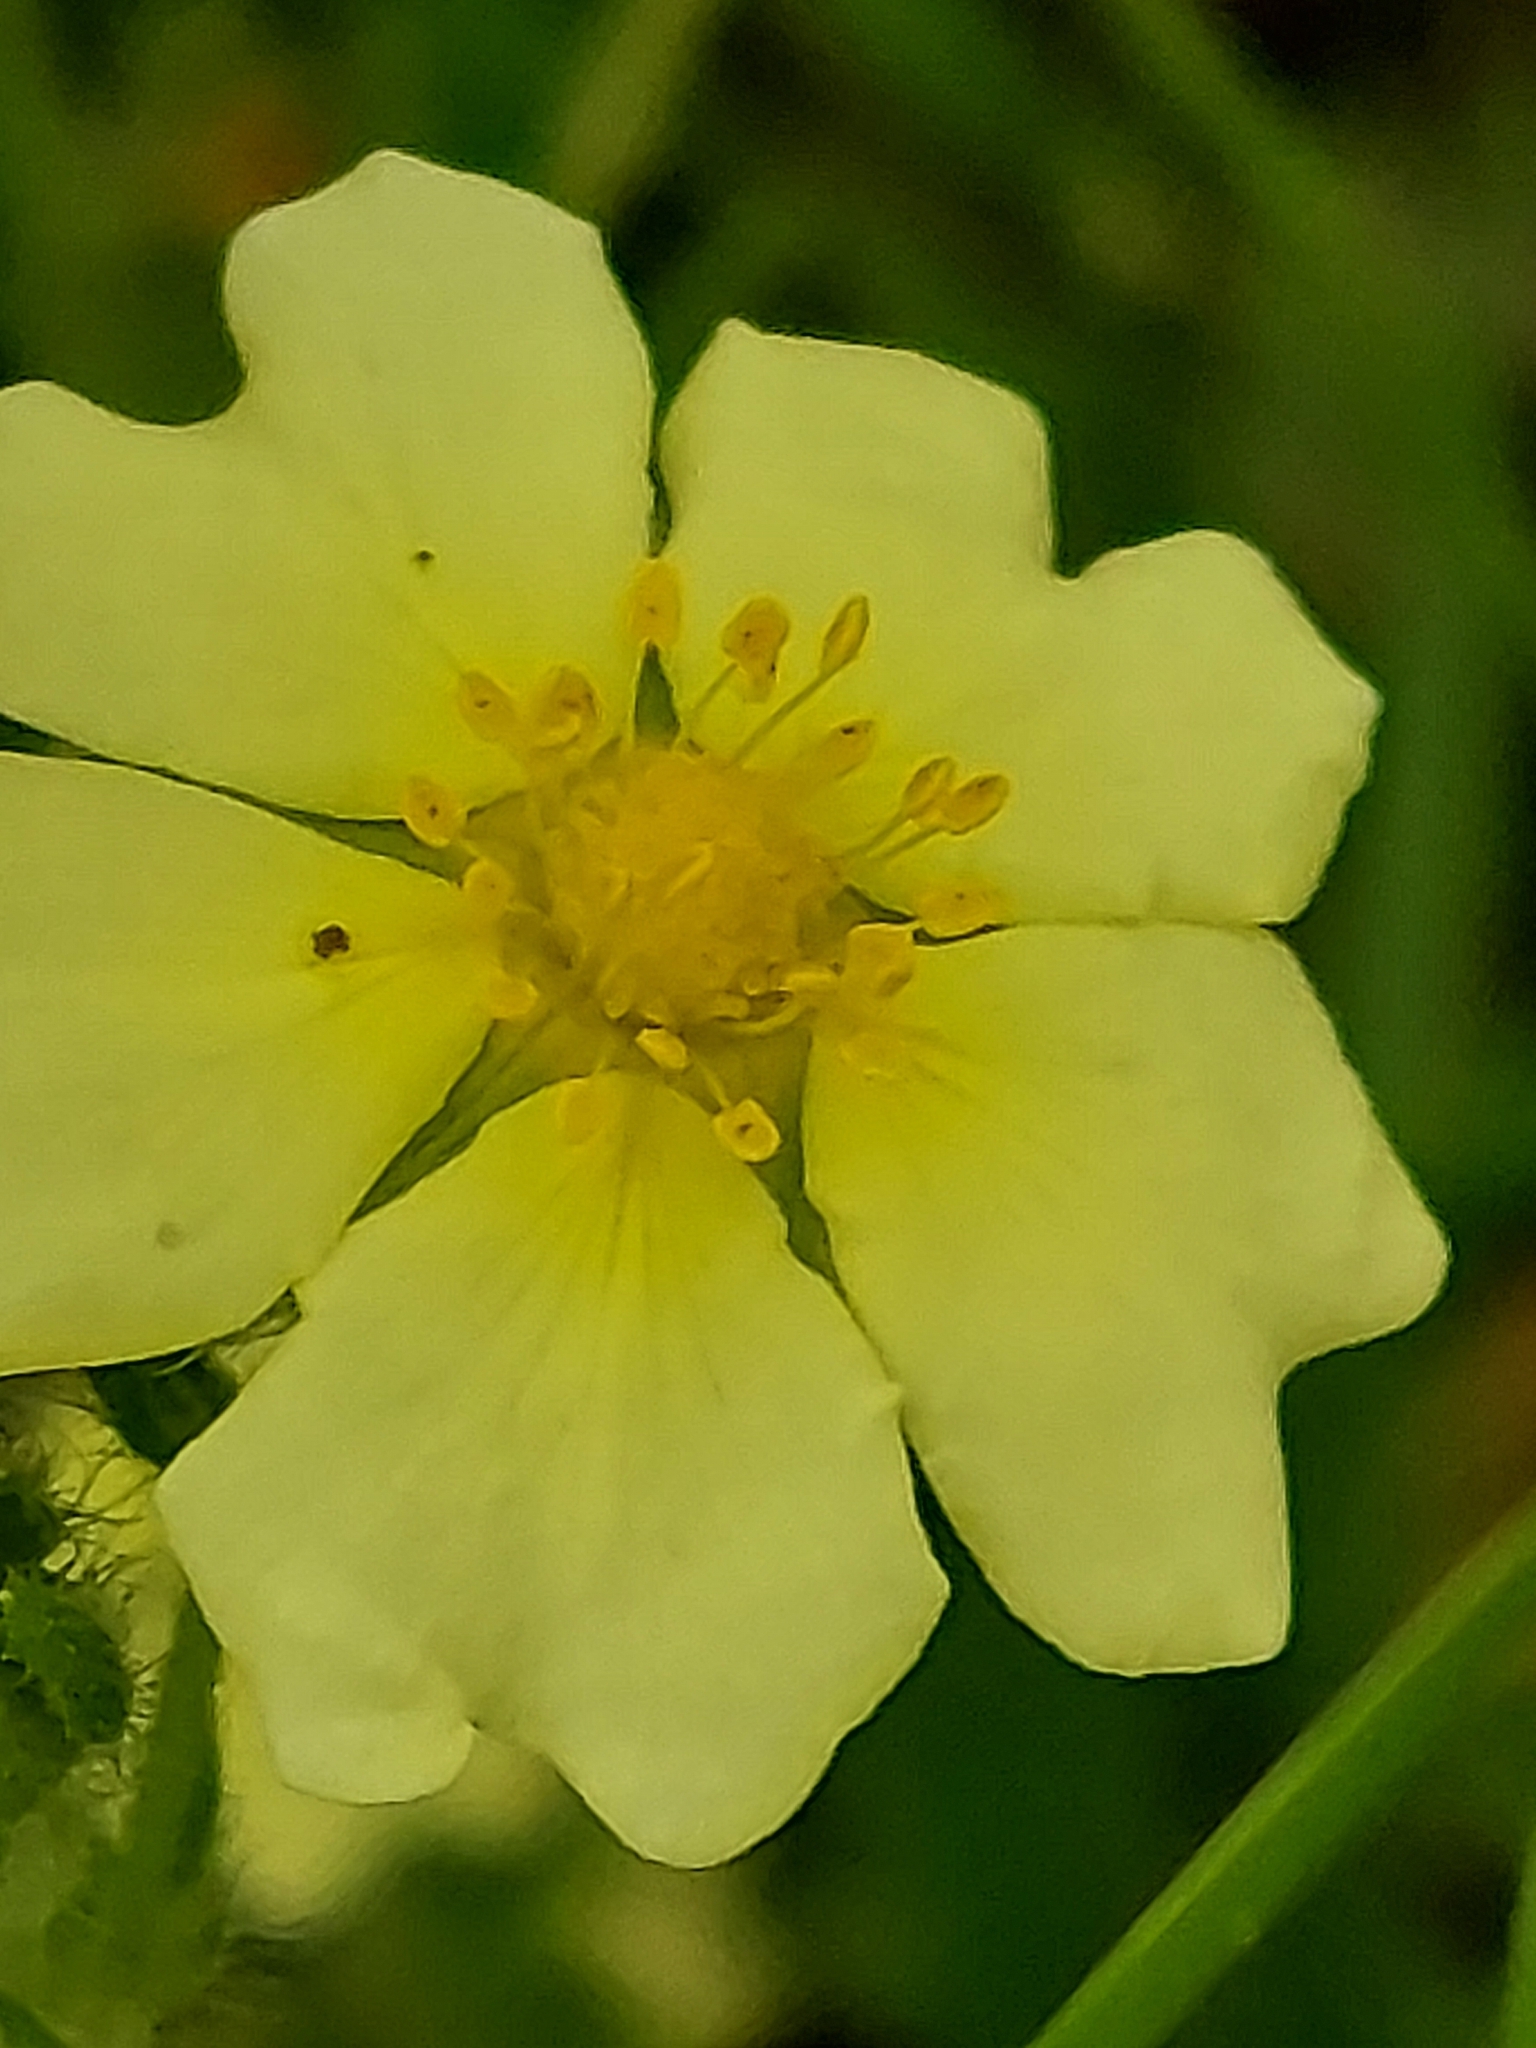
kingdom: Plantae
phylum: Tracheophyta
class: Magnoliopsida
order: Rosales
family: Rosaceae
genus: Potentilla
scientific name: Potentilla recta
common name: Sulphur cinquefoil
